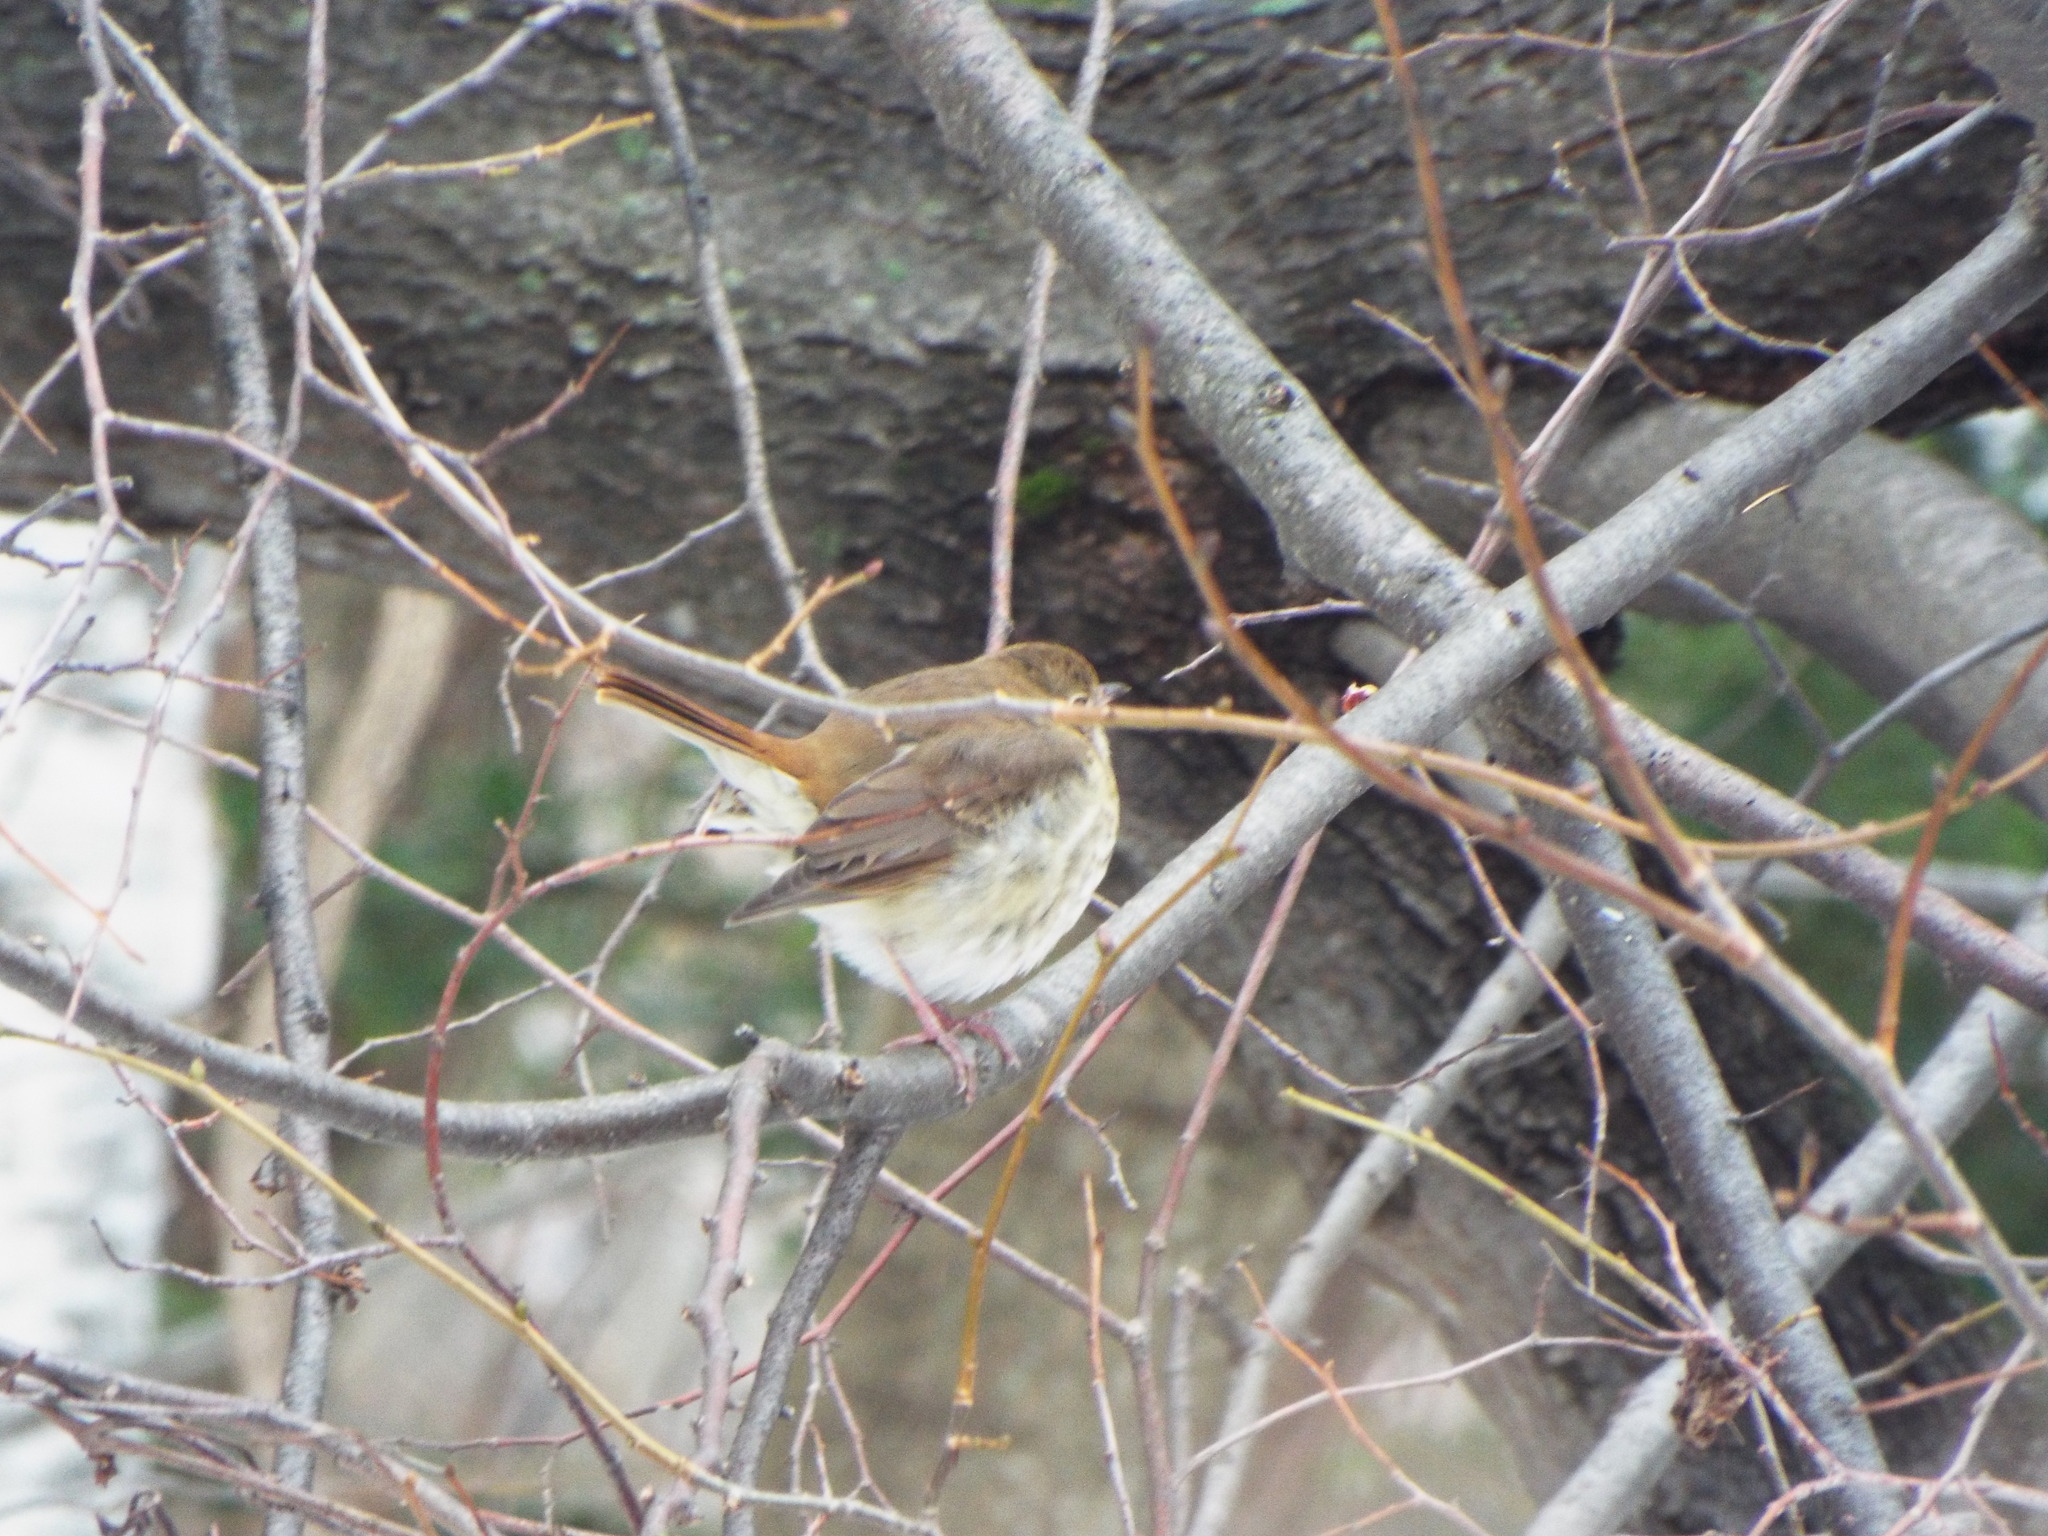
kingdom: Animalia
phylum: Chordata
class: Aves
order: Passeriformes
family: Turdidae
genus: Catharus
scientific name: Catharus guttatus
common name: Hermit thrush
